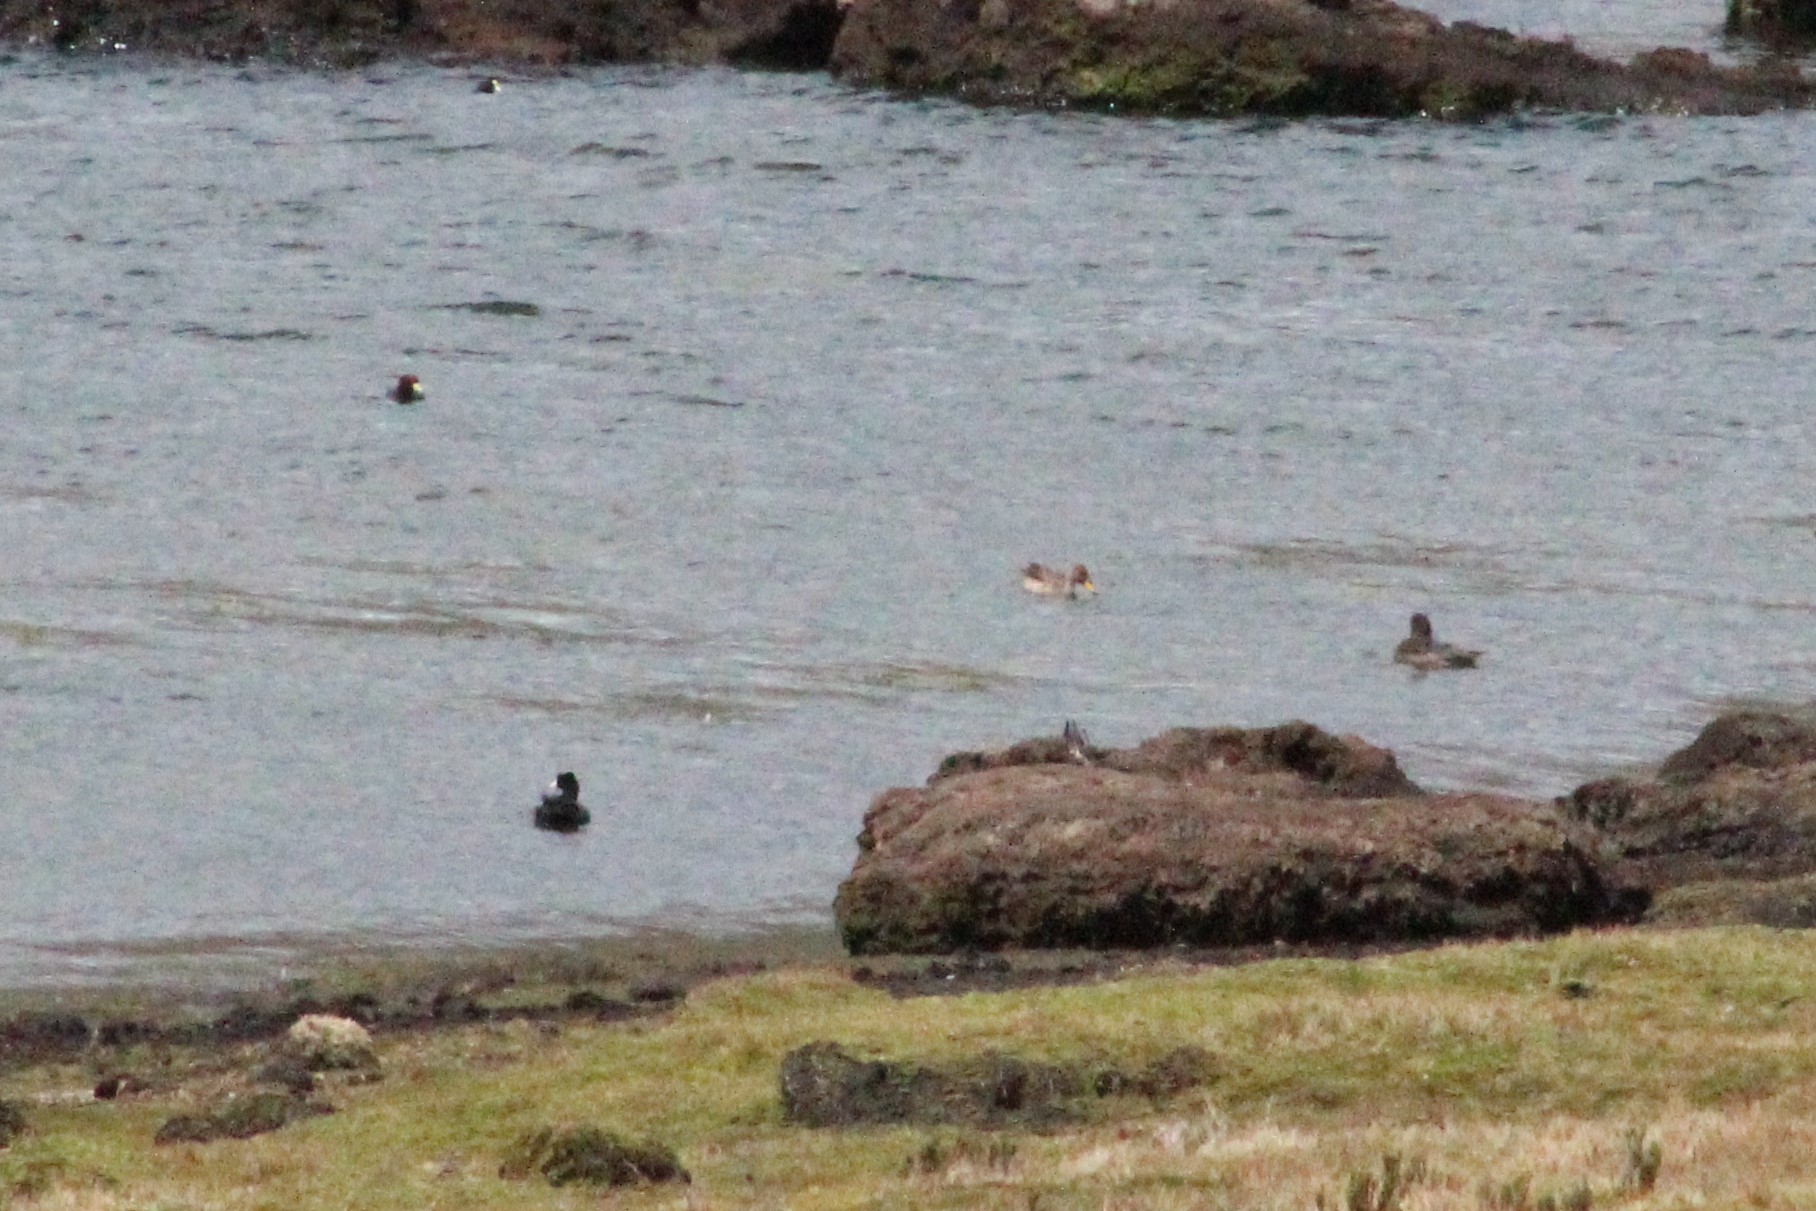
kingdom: Animalia
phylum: Chordata
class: Aves
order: Anseriformes
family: Anatidae
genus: Anas
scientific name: Anas georgica
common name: Yellow-billed pintail
